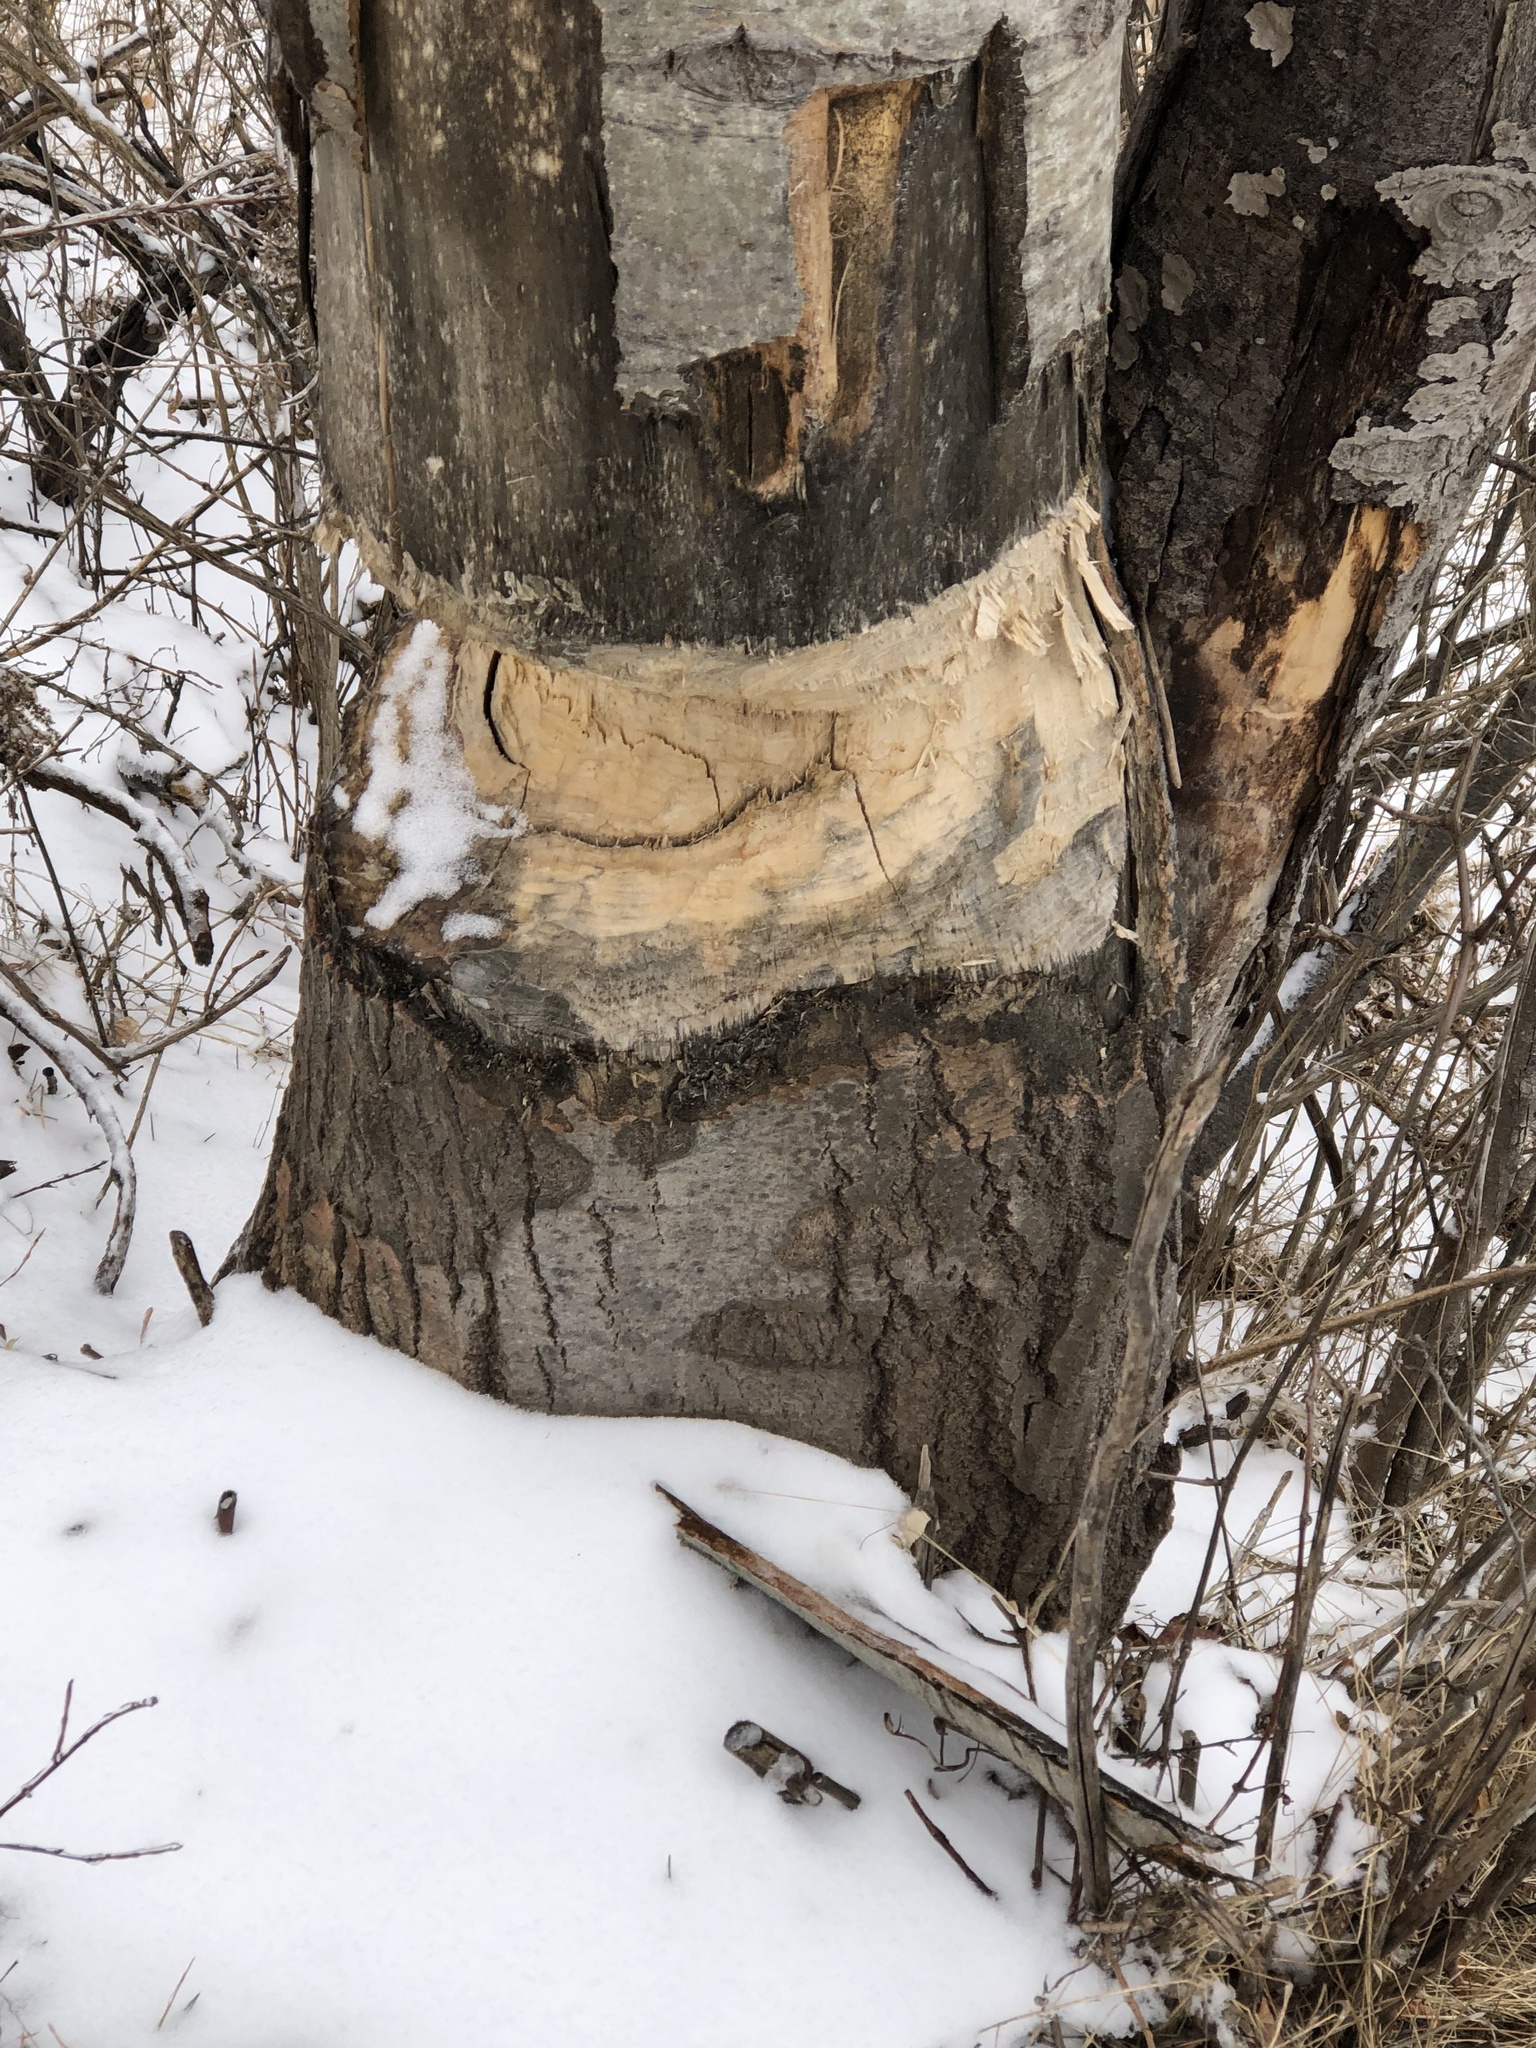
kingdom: Animalia
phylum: Chordata
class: Mammalia
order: Rodentia
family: Castoridae
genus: Castor
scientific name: Castor canadensis
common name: American beaver
